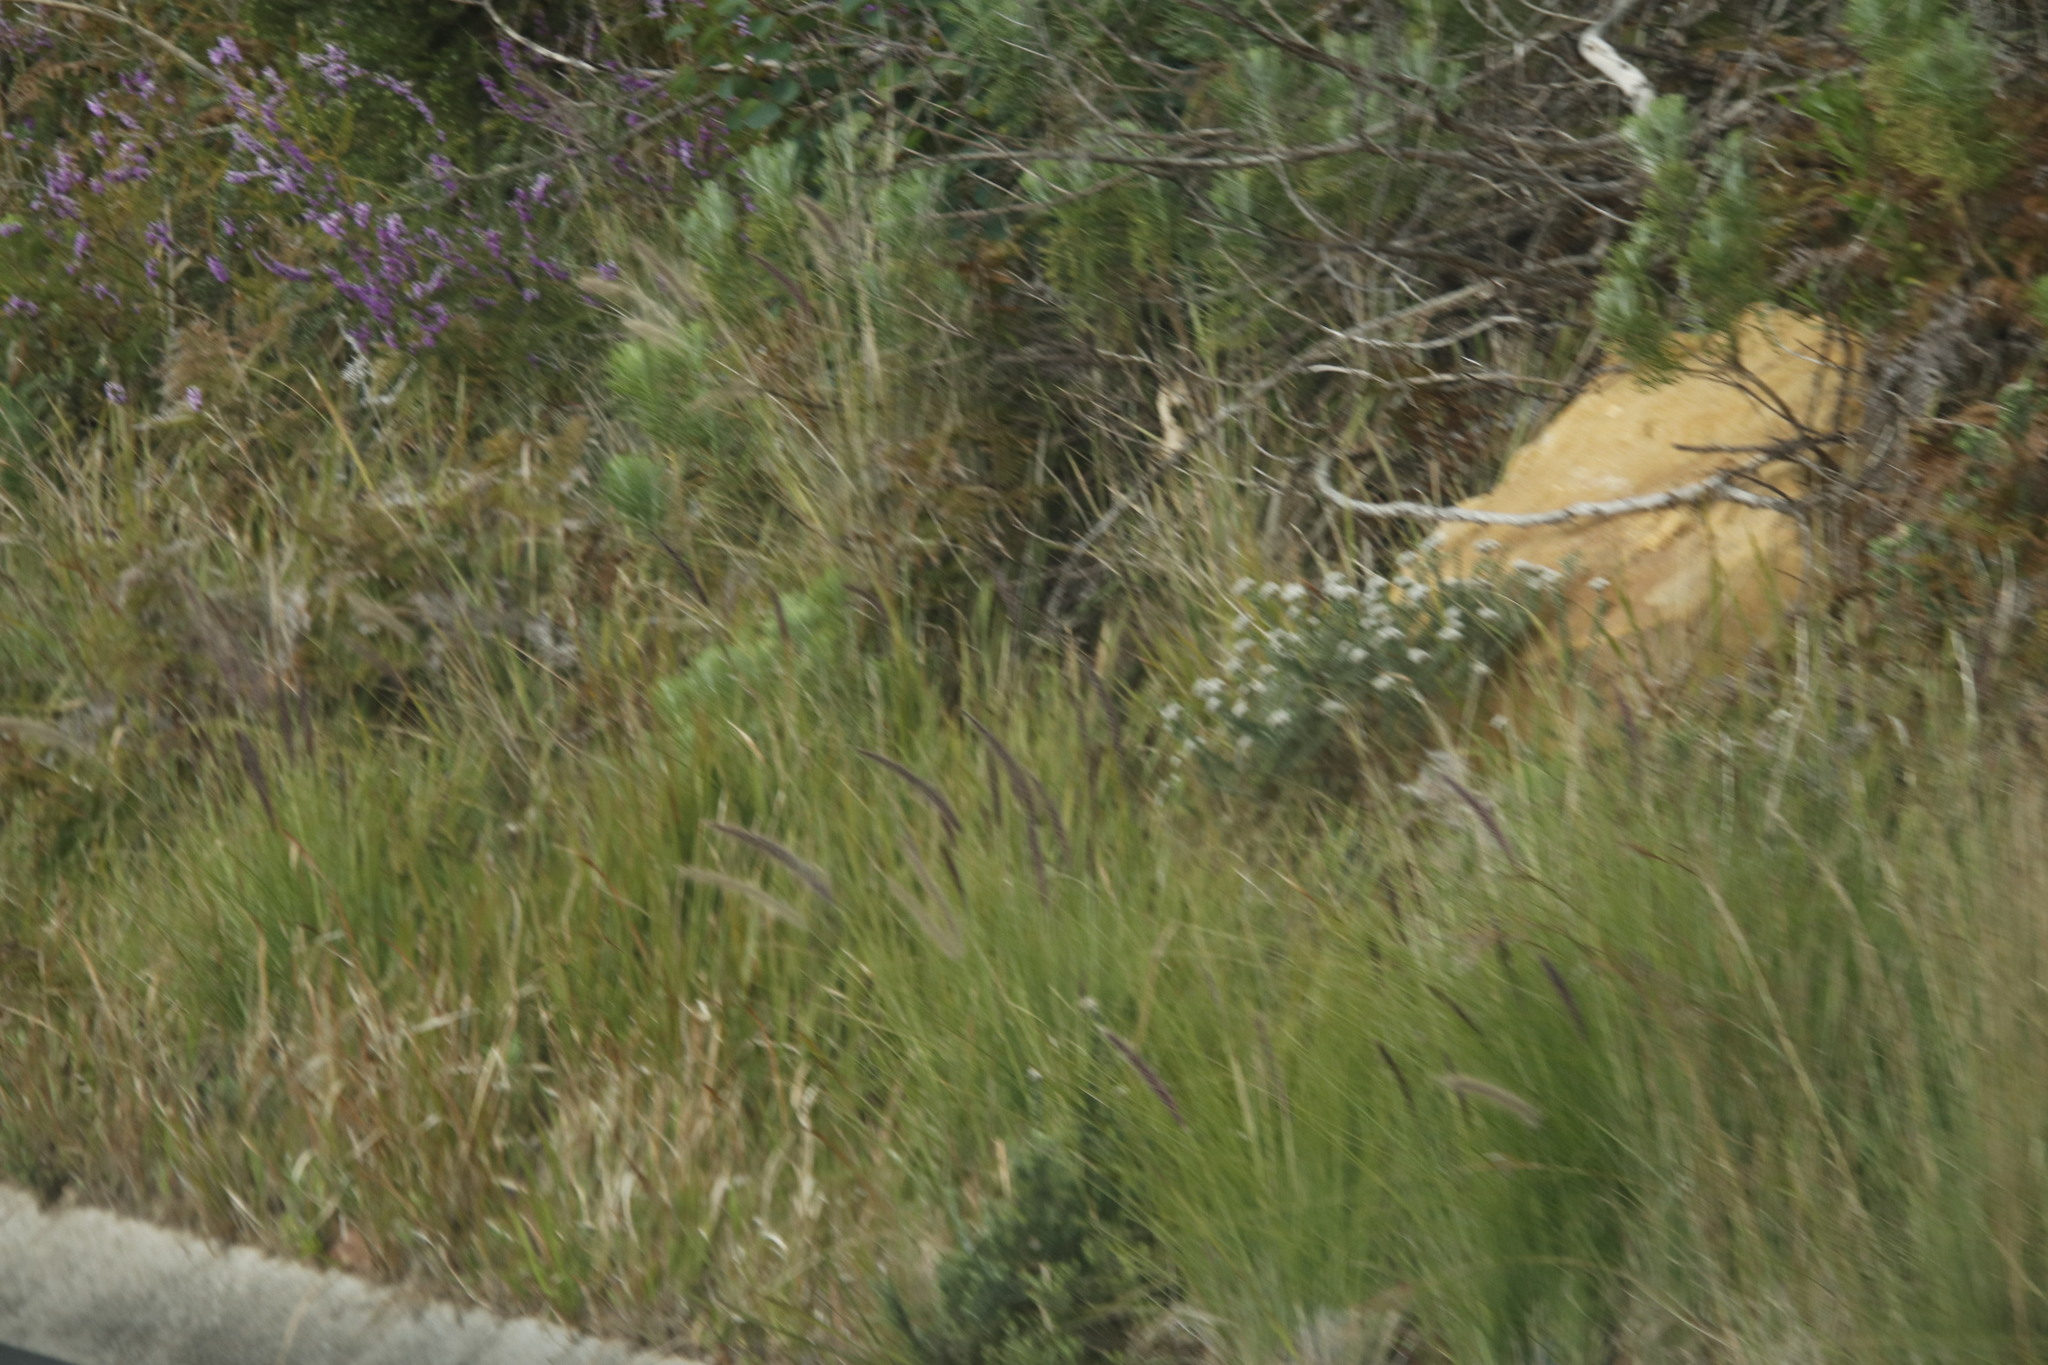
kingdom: Plantae
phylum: Tracheophyta
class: Liliopsida
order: Poales
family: Poaceae
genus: Cenchrus
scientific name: Cenchrus setaceus
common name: Crimson fountaingrass
